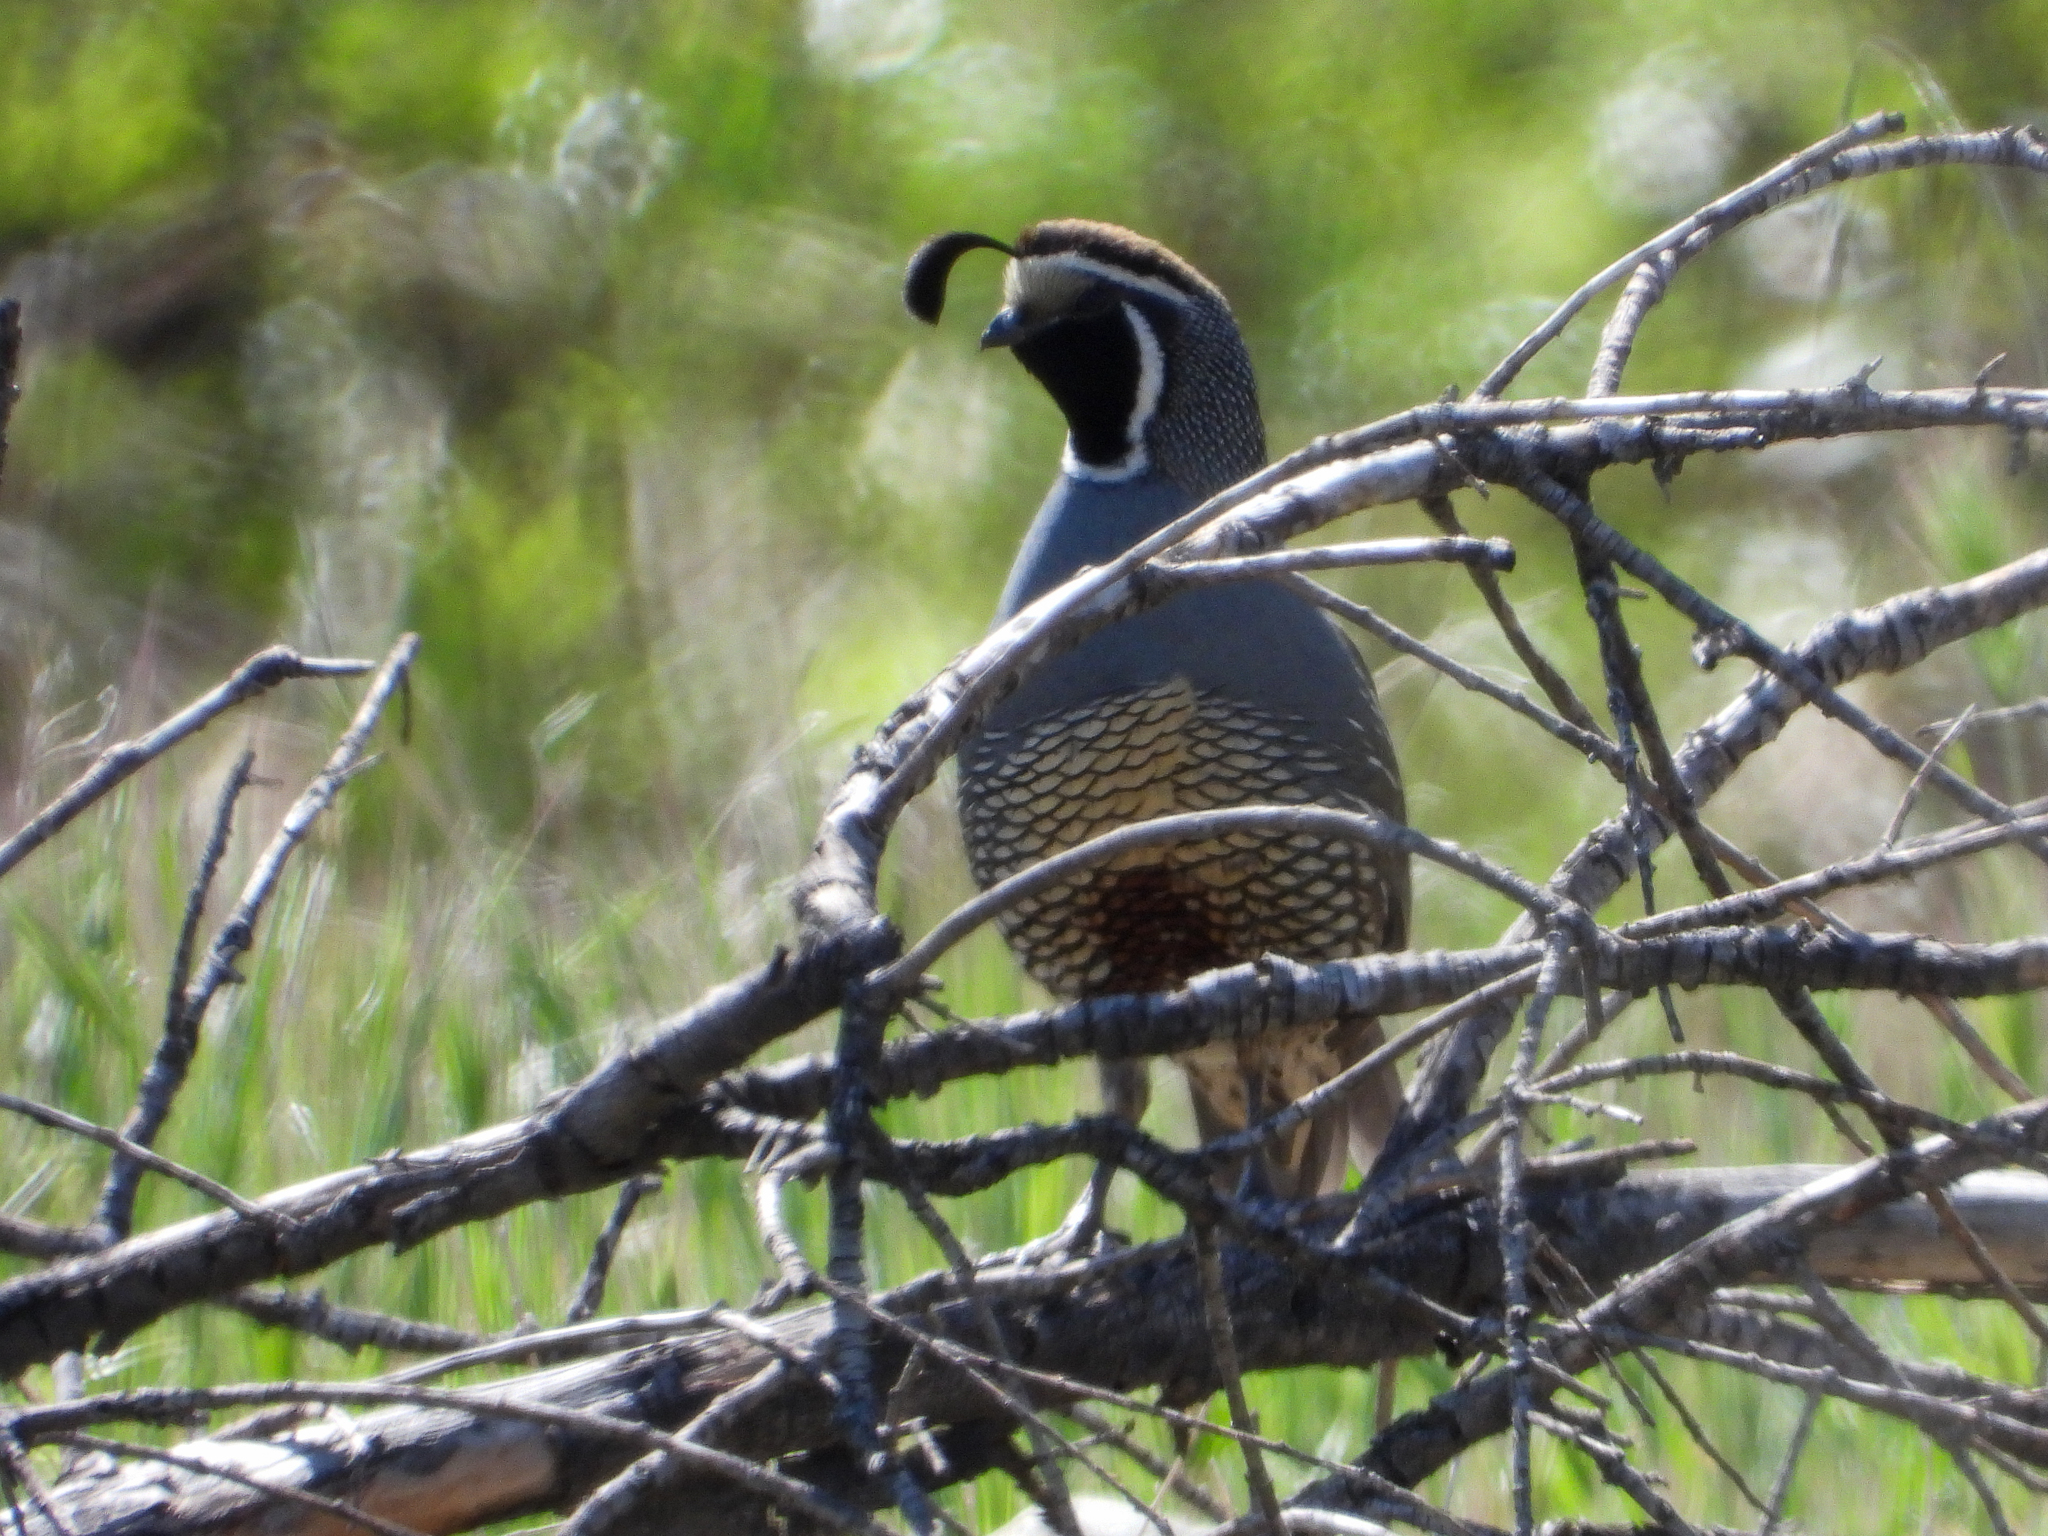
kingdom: Animalia
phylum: Chordata
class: Aves
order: Galliformes
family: Odontophoridae
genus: Callipepla
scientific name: Callipepla californica
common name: California quail
